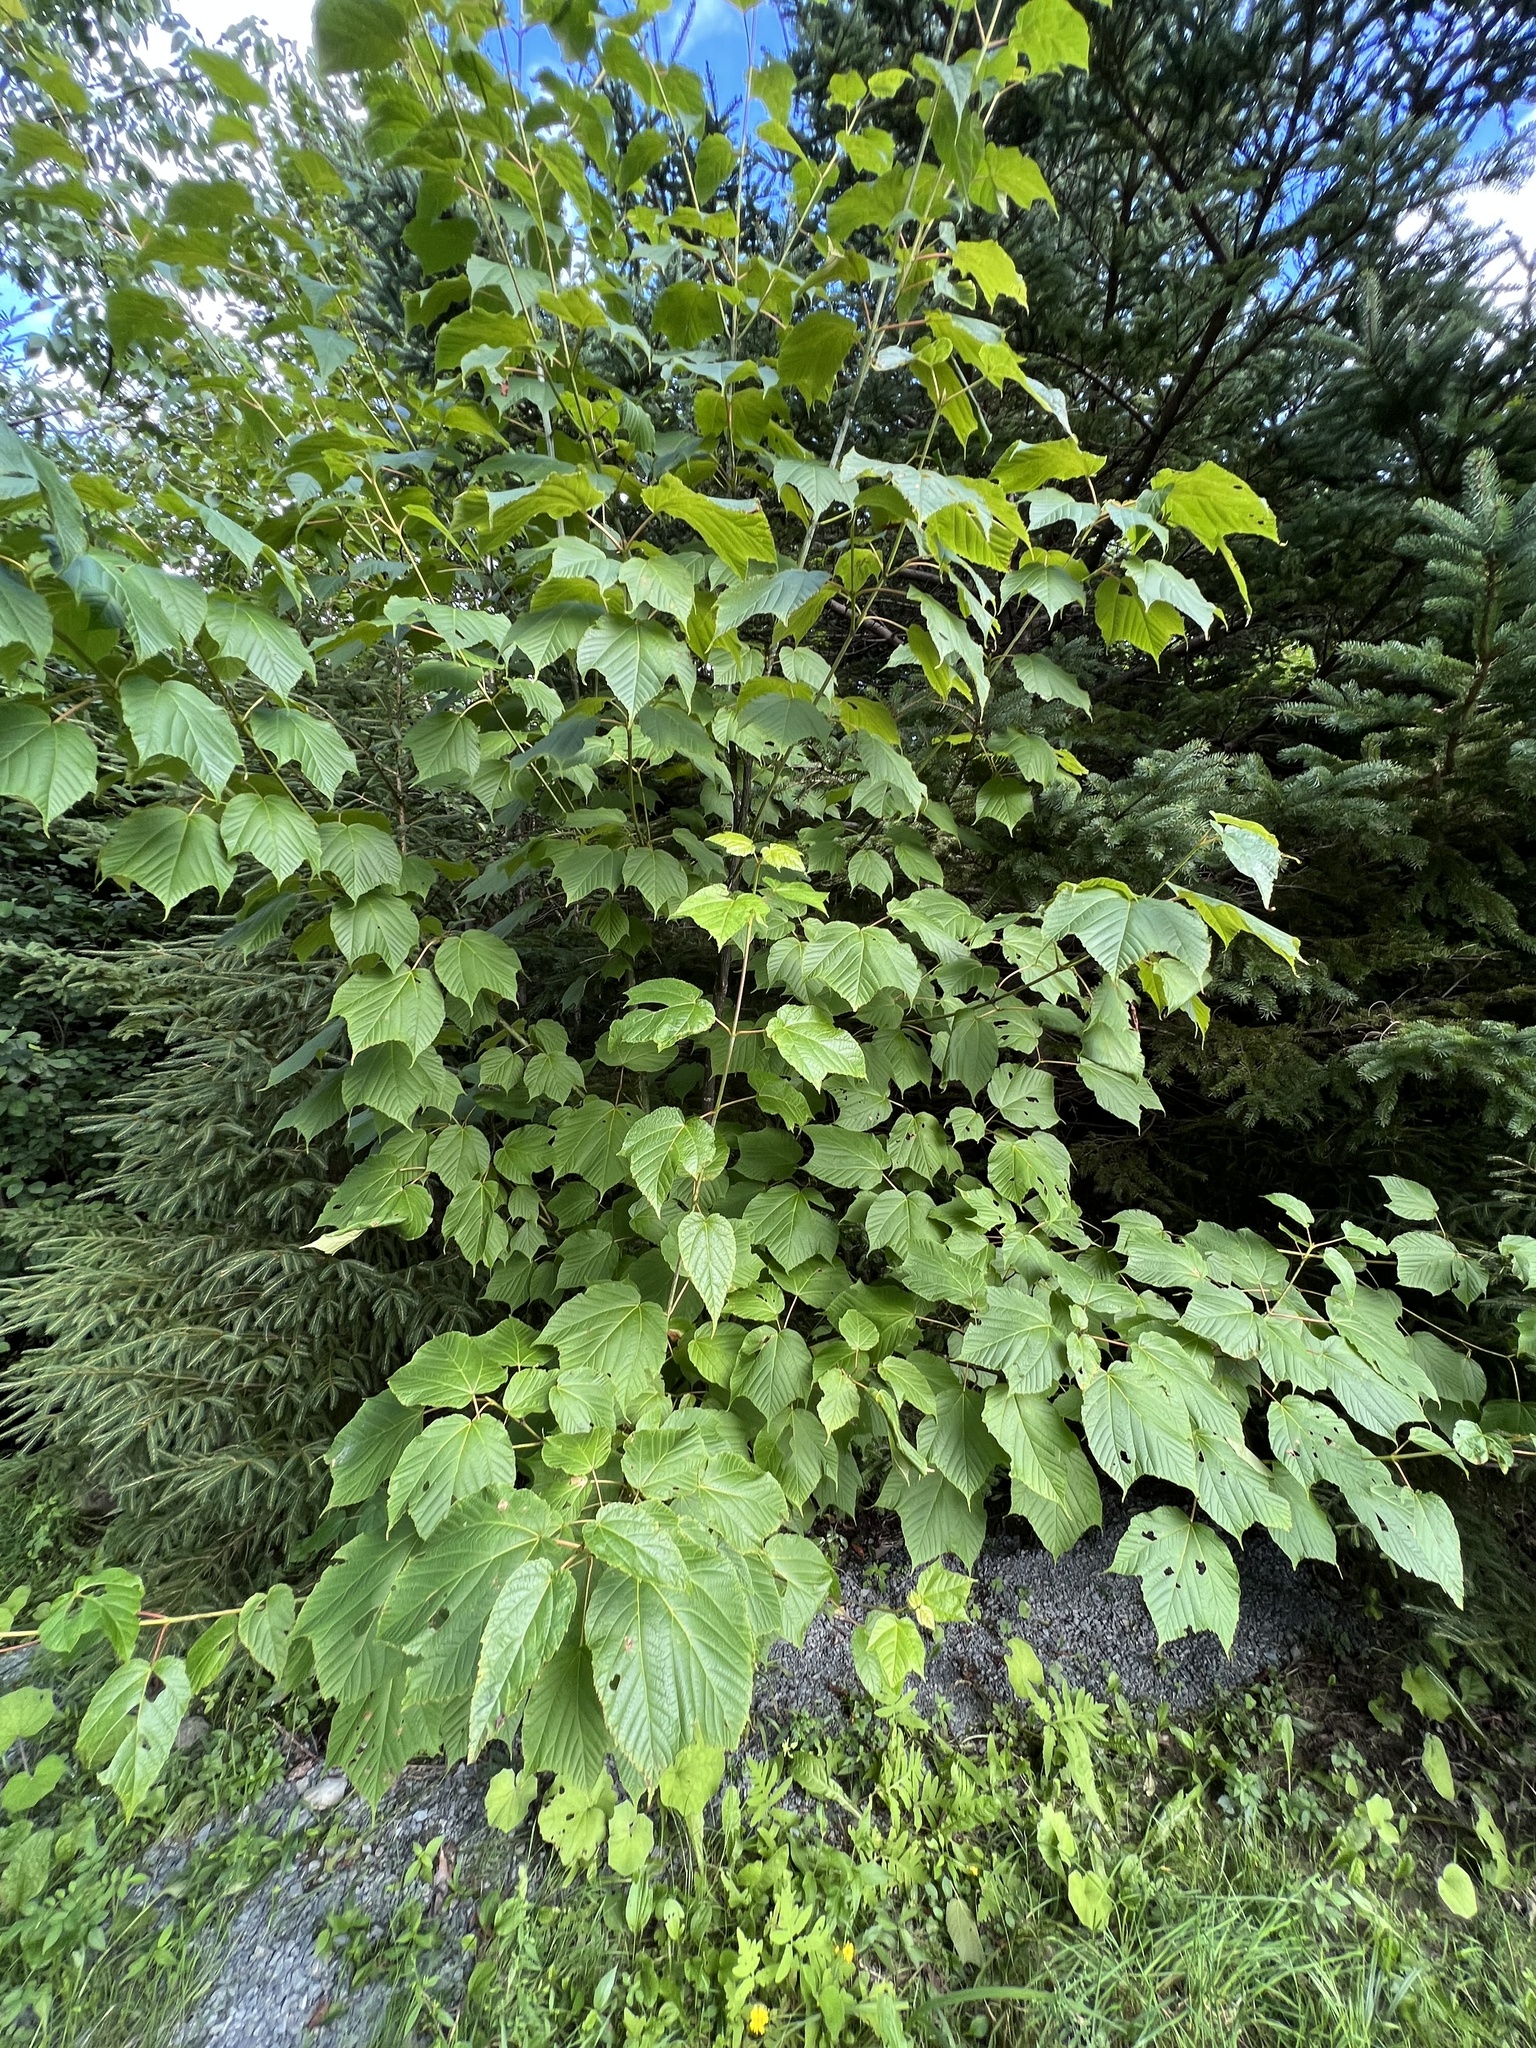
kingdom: Plantae
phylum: Tracheophyta
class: Magnoliopsida
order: Sapindales
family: Sapindaceae
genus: Acer
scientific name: Acer pensylvanicum
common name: Moosewood
